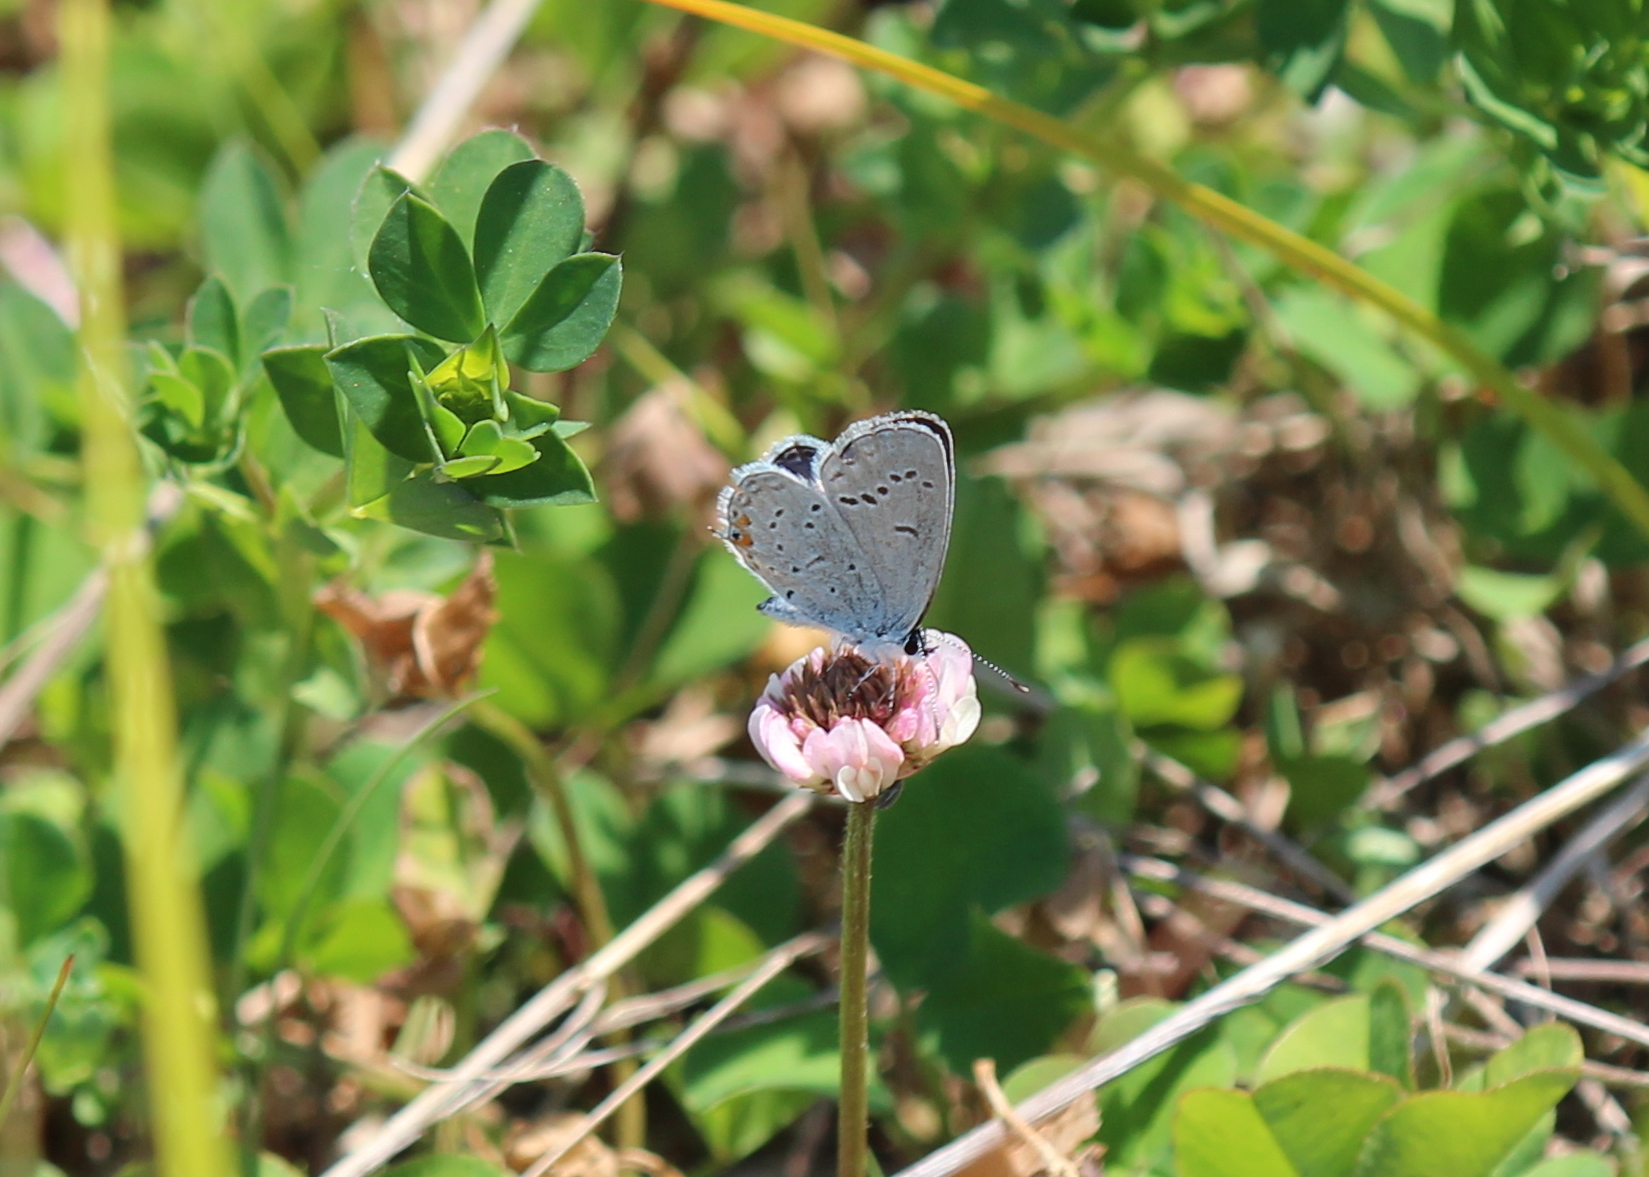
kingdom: Animalia
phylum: Arthropoda
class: Insecta
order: Lepidoptera
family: Lycaenidae
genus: Elkalyce
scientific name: Elkalyce comyntas
